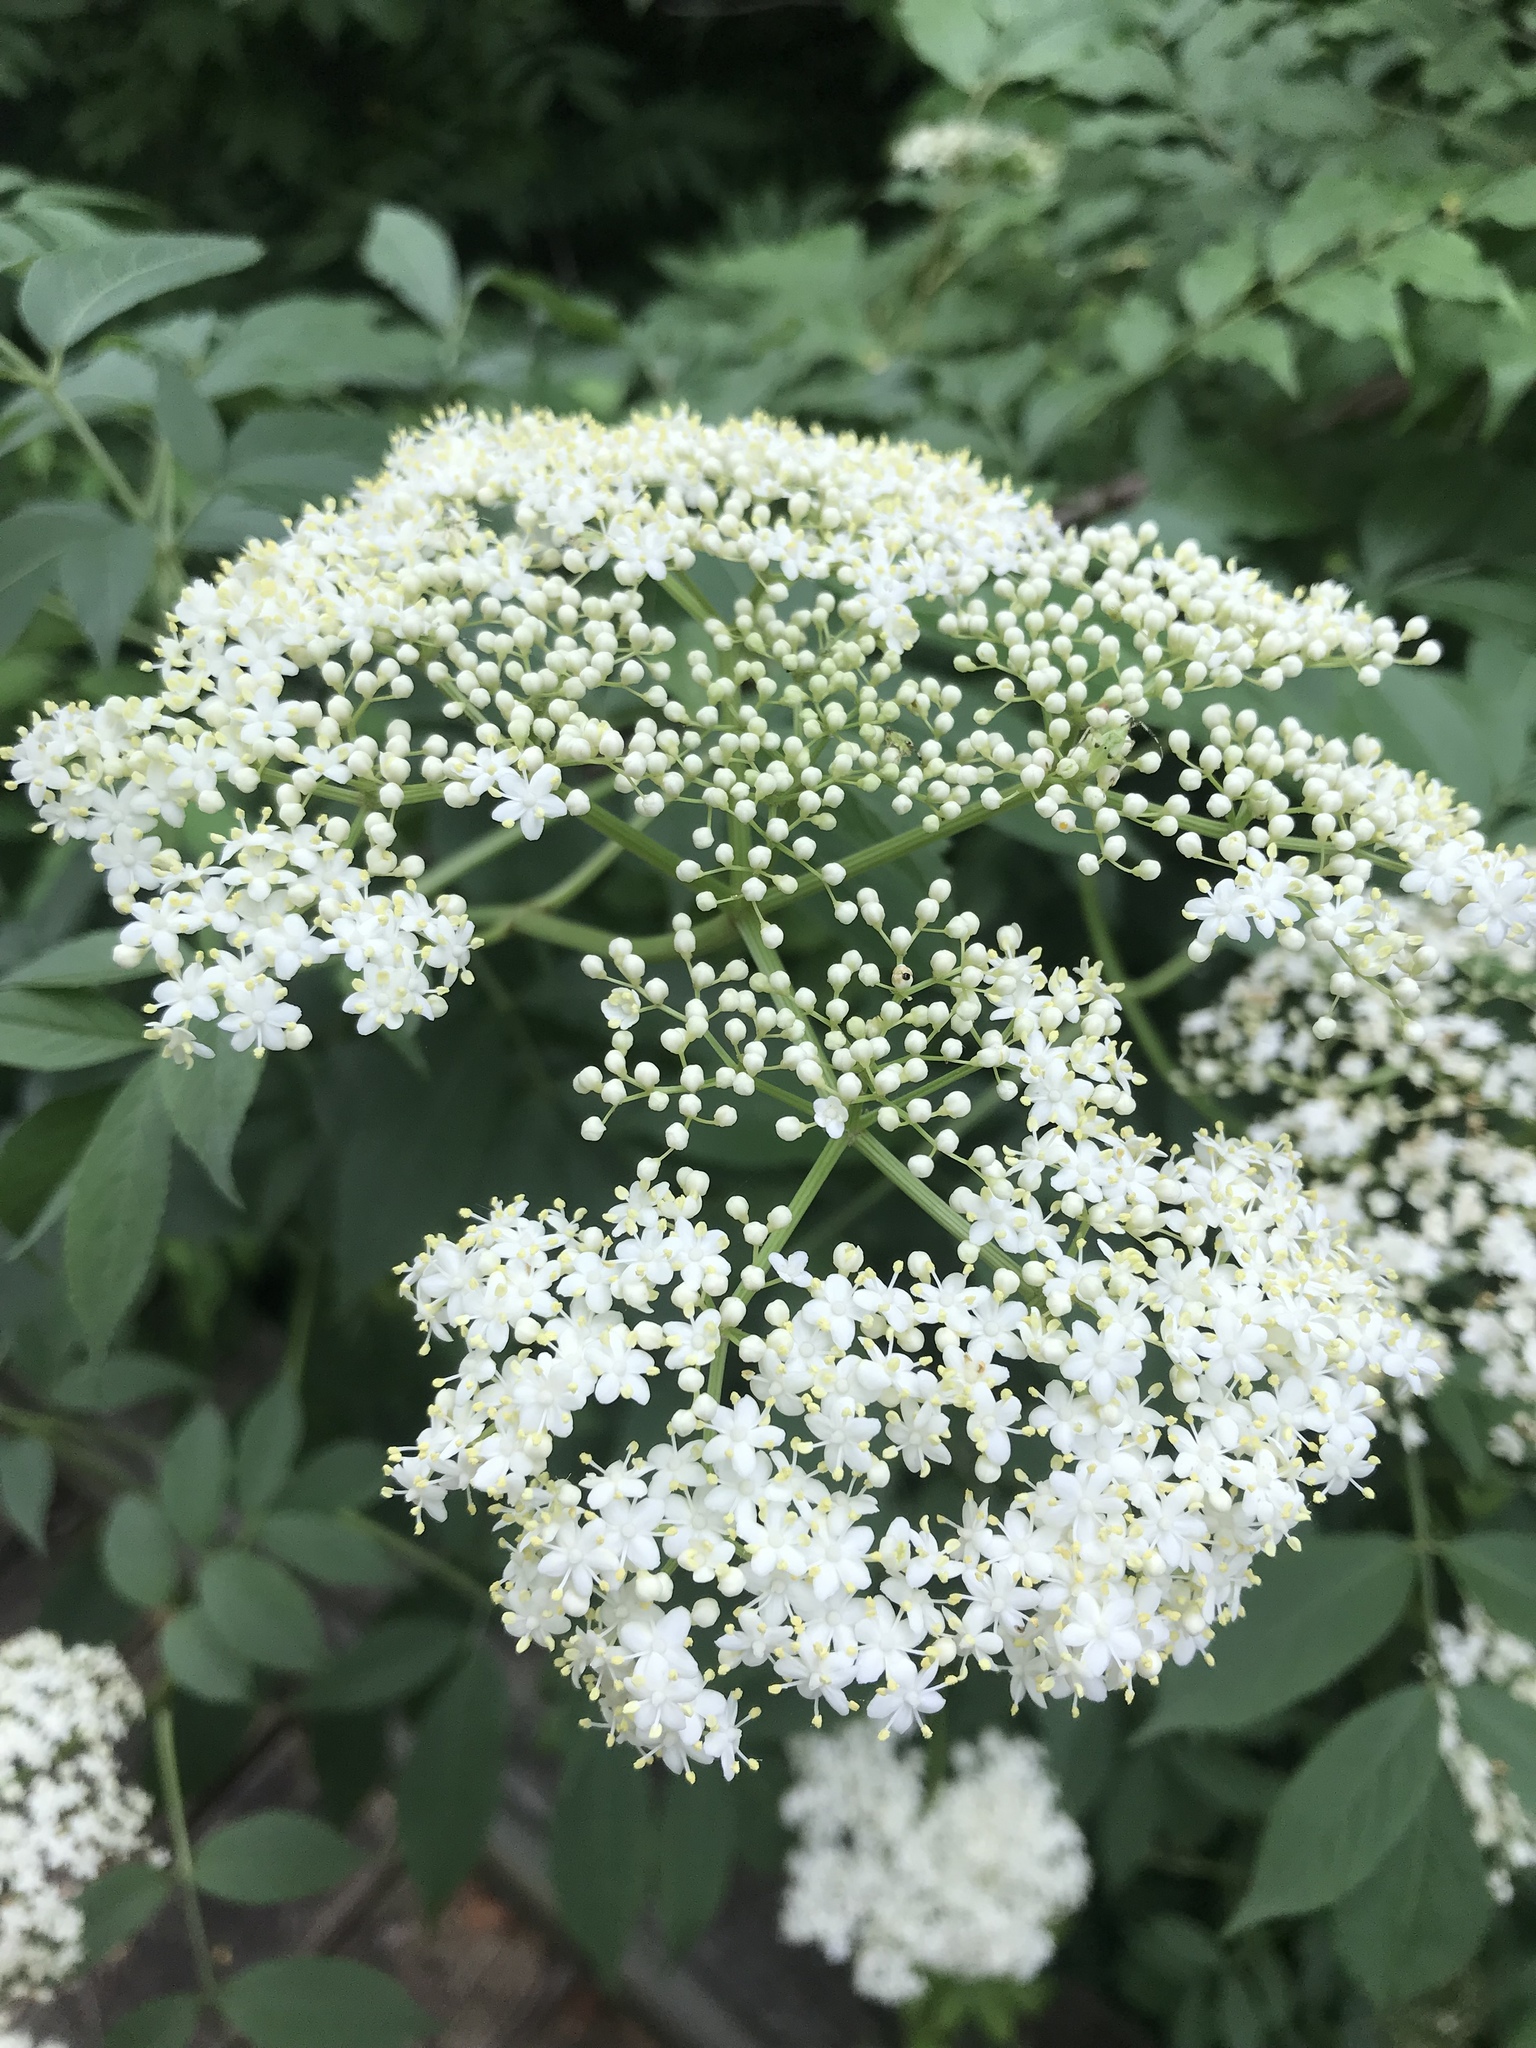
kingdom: Plantae
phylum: Tracheophyta
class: Magnoliopsida
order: Dipsacales
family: Viburnaceae
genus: Sambucus
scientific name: Sambucus canadensis
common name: American elder
